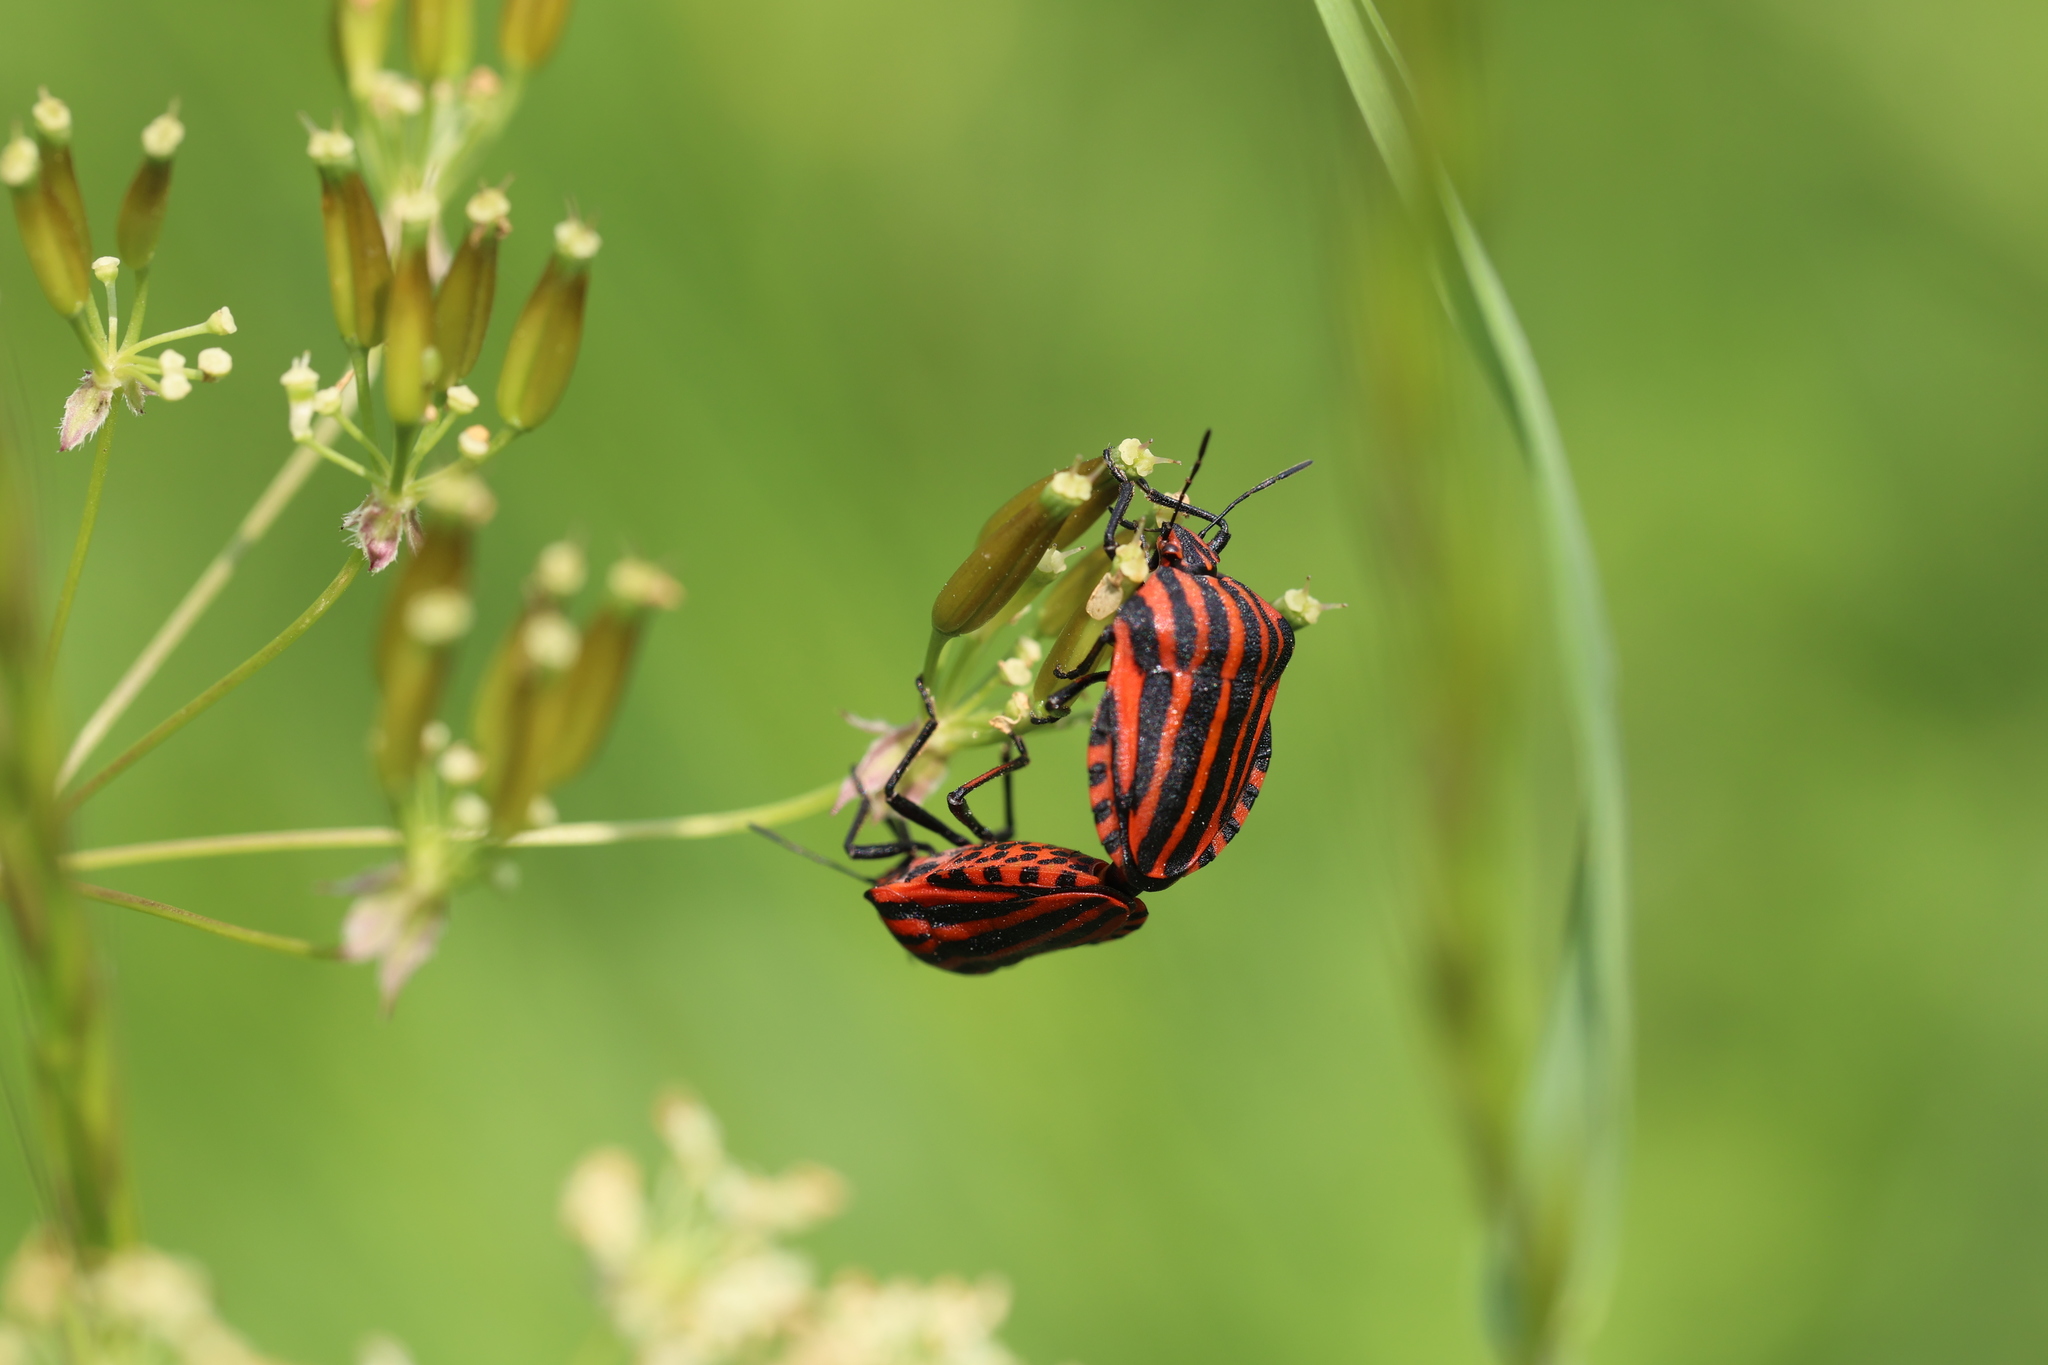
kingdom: Animalia
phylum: Arthropoda
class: Insecta
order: Hemiptera
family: Pentatomidae
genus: Graphosoma
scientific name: Graphosoma italicum
